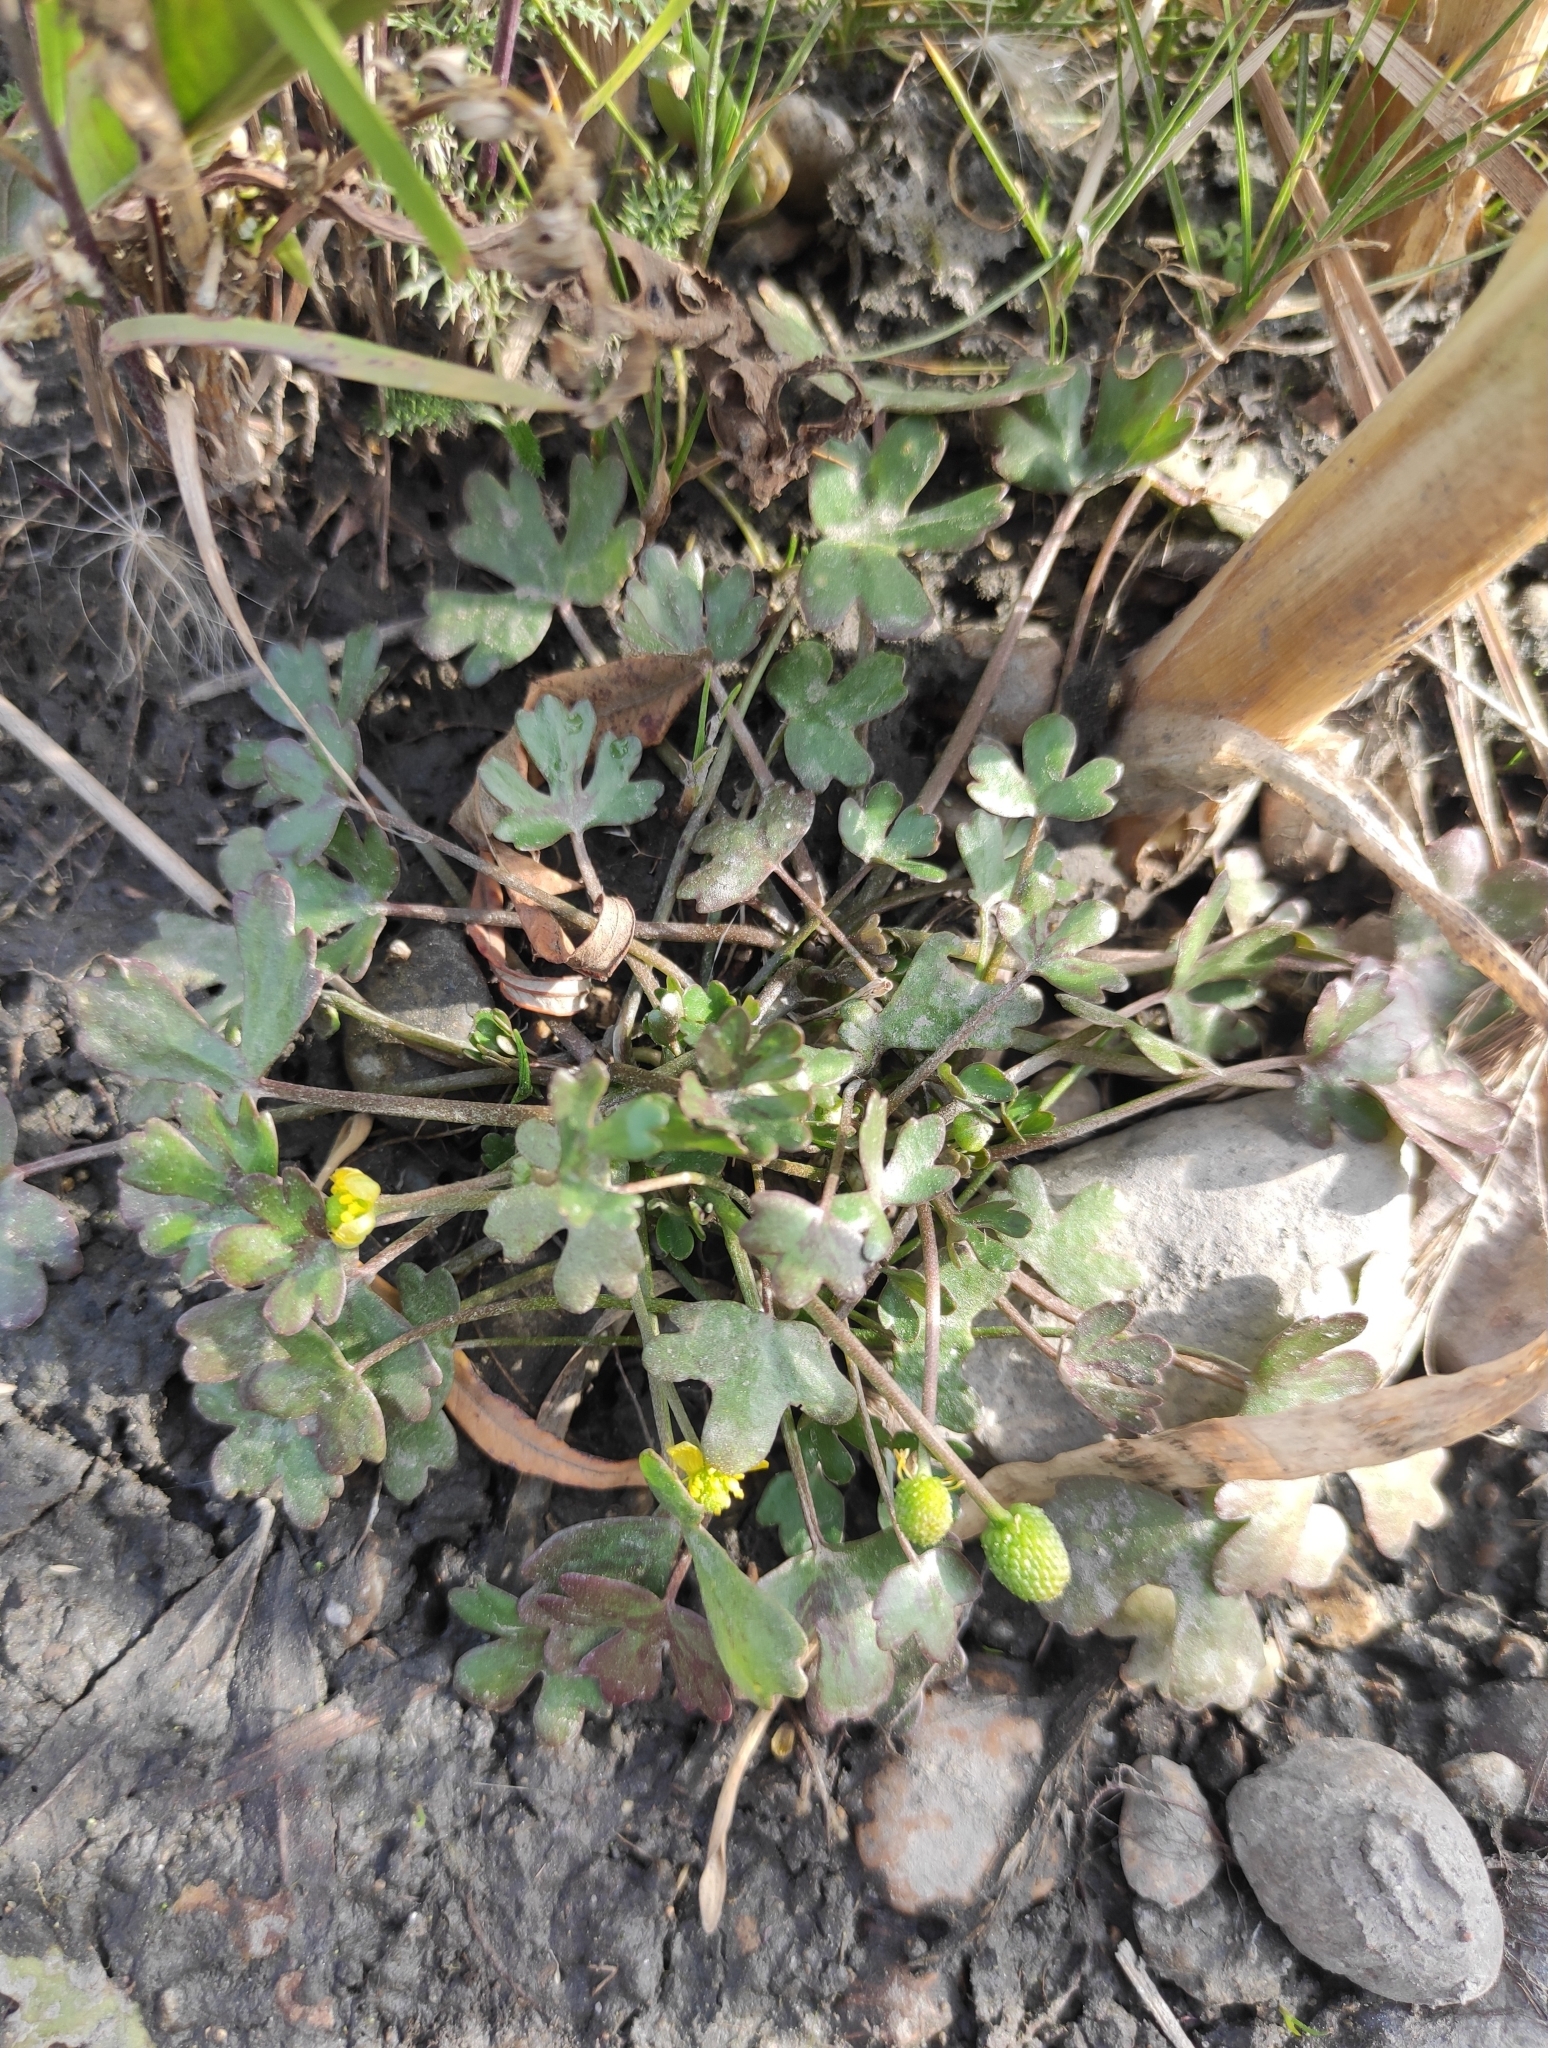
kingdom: Plantae
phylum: Tracheophyta
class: Magnoliopsida
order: Ranunculales
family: Ranunculaceae
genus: Ranunculus
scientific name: Ranunculus sceleratus
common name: Celery-leaved buttercup
